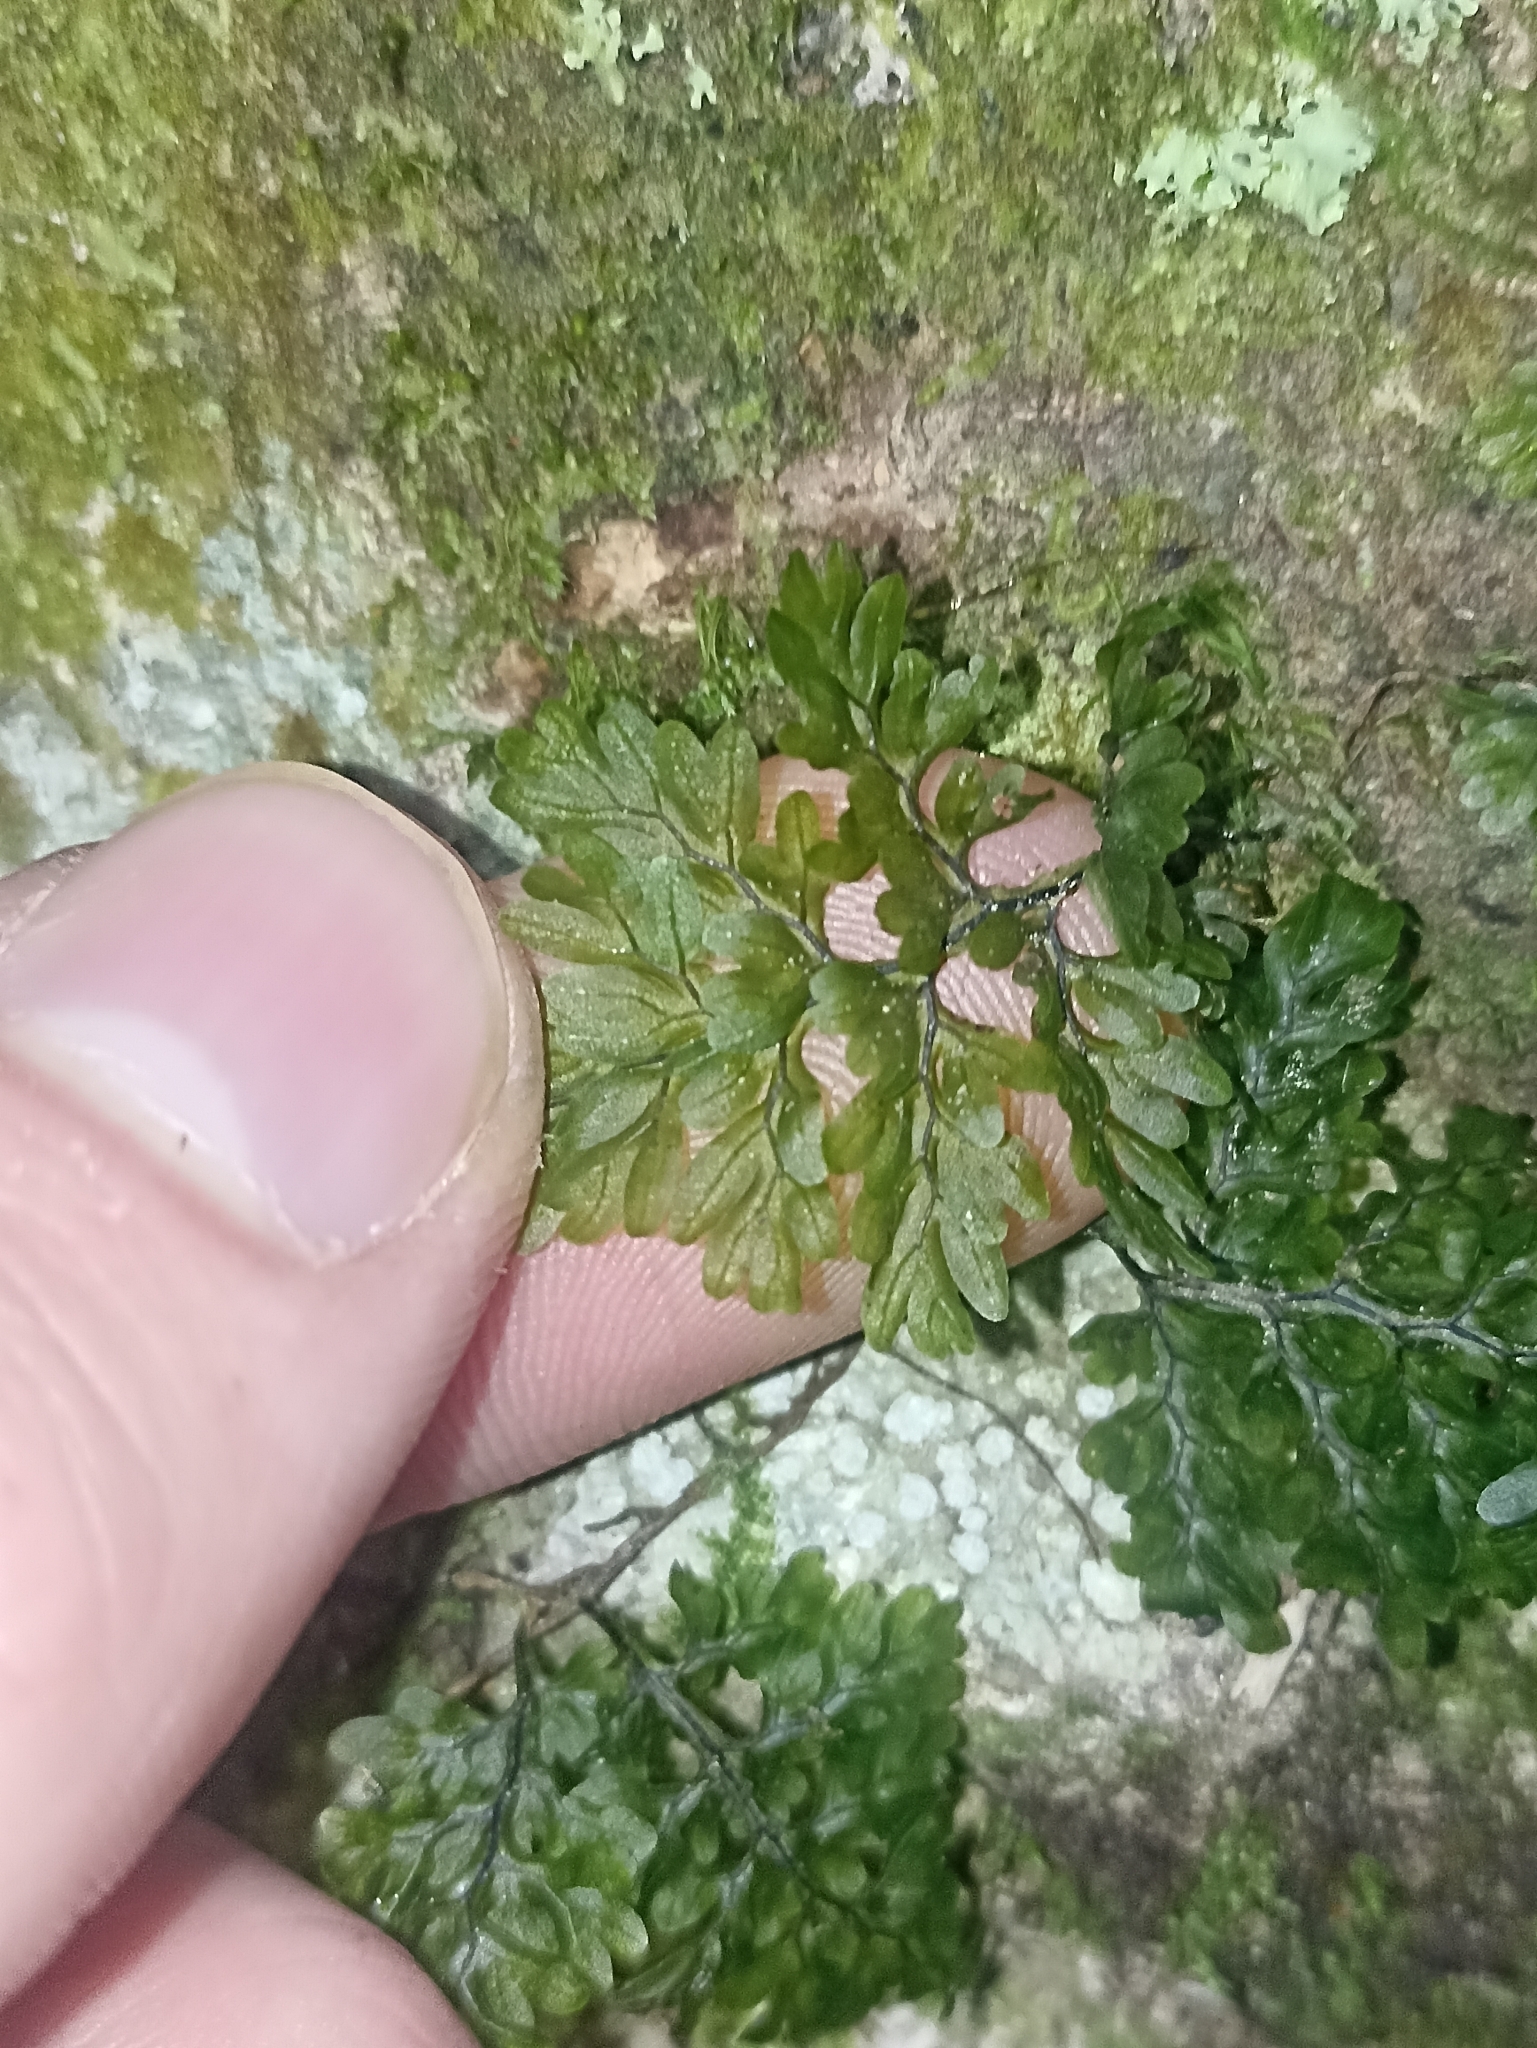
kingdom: Plantae
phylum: Tracheophyta
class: Polypodiopsida
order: Hymenophyllales
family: Hymenophyllaceae
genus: Hymenophyllum
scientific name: Hymenophyllum sanguinolentum
